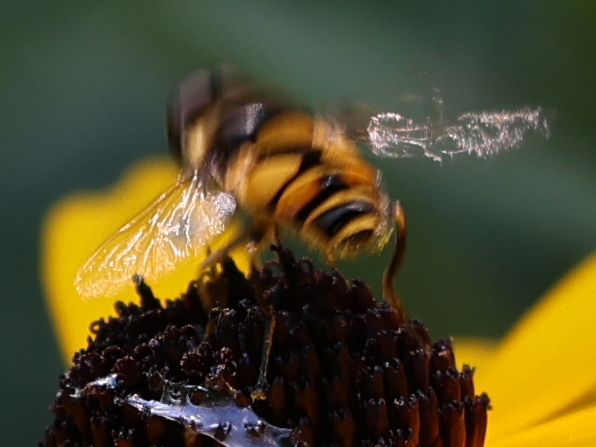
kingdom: Animalia
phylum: Arthropoda
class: Insecta
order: Diptera
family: Syrphidae
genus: Eristalis
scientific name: Eristalis transversa
